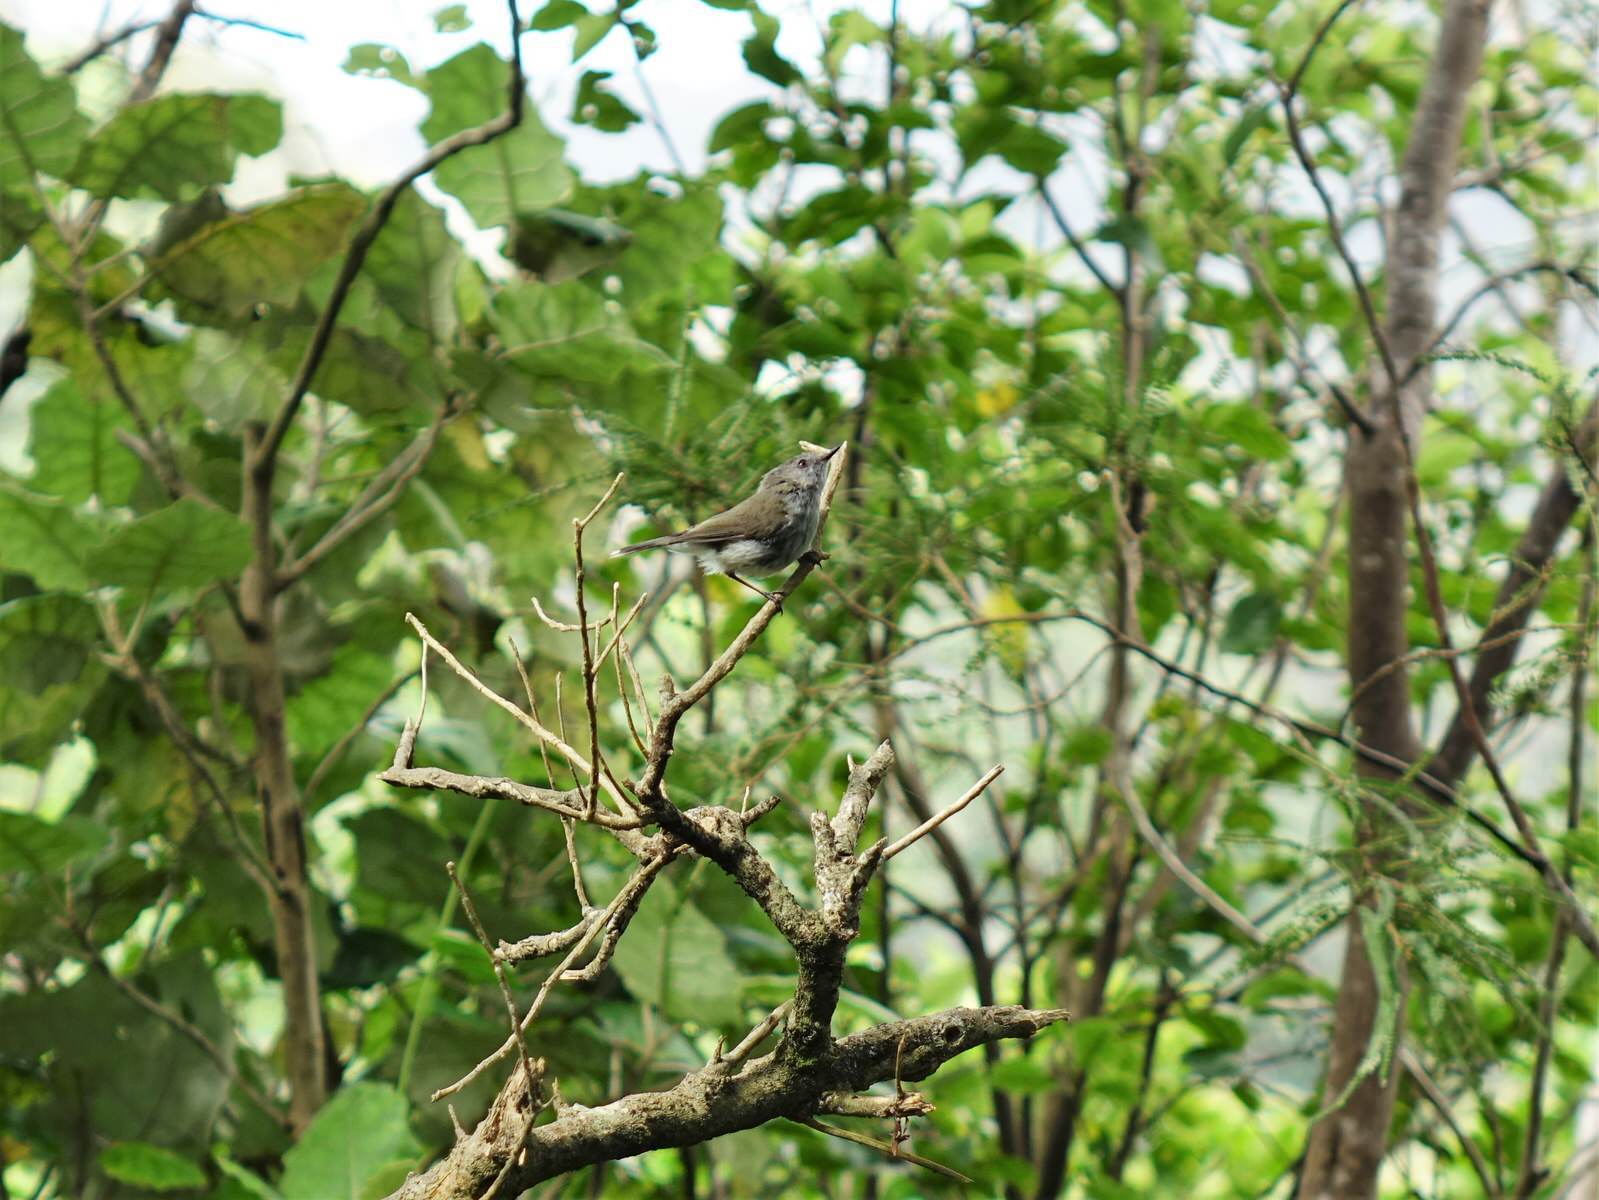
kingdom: Animalia
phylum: Chordata
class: Aves
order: Passeriformes
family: Acanthizidae
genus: Gerygone
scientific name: Gerygone igata
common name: Grey gerygone
